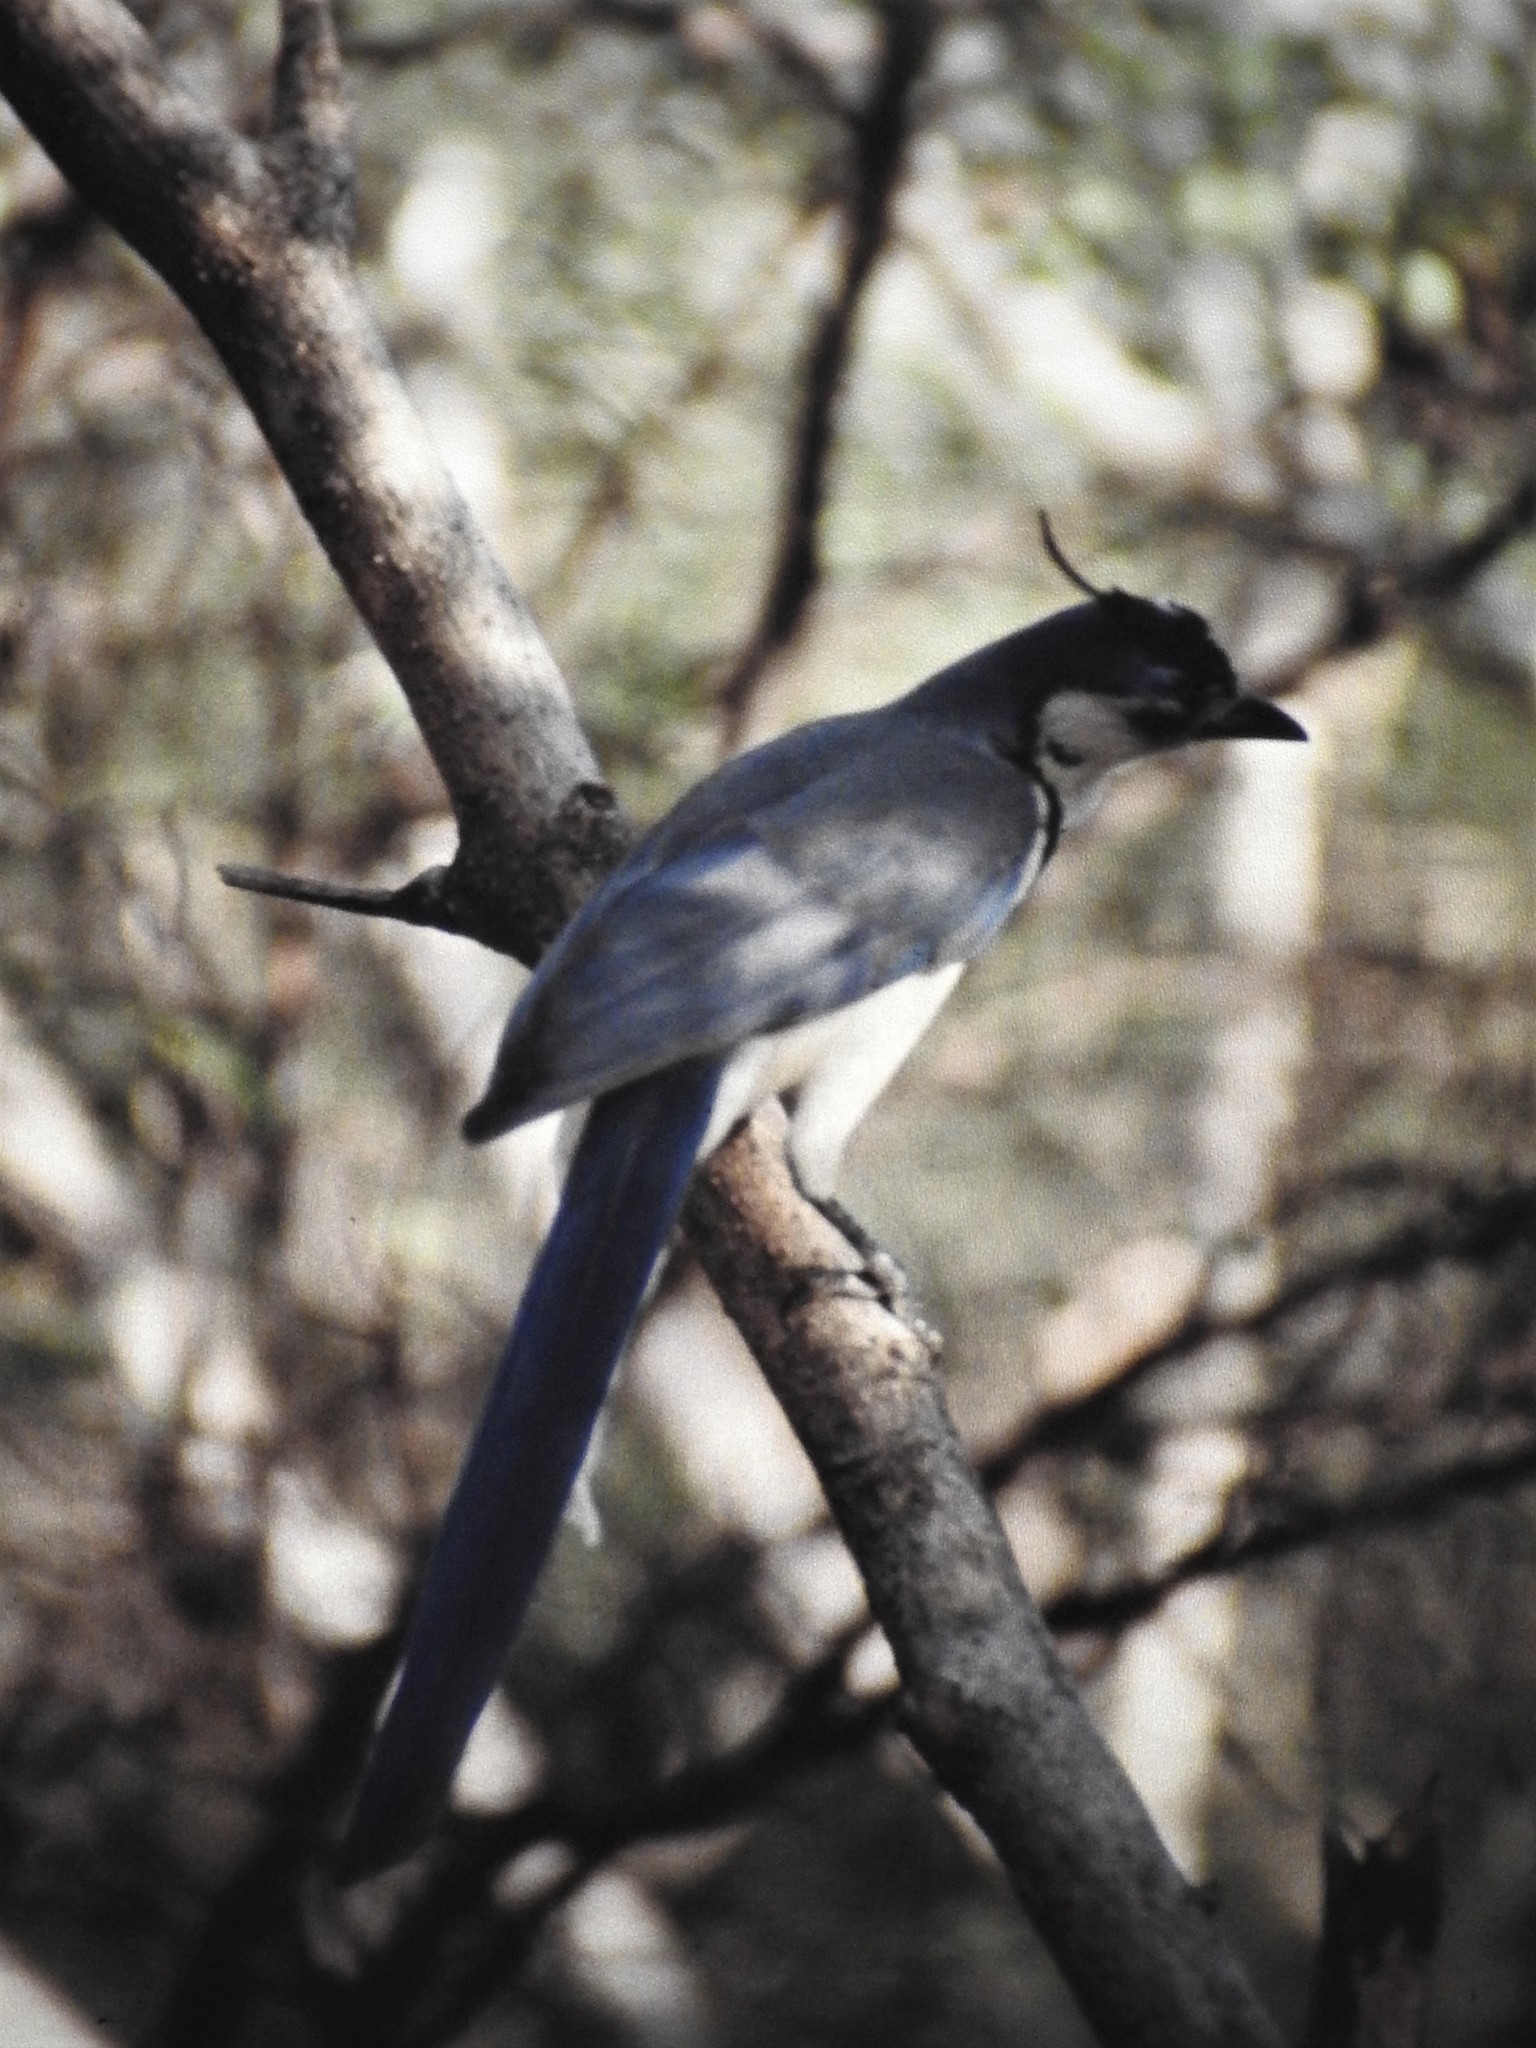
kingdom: Animalia
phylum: Chordata
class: Aves
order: Passeriformes
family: Corvidae
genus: Calocitta
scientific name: Calocitta formosa
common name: White-throated magpie-jay
